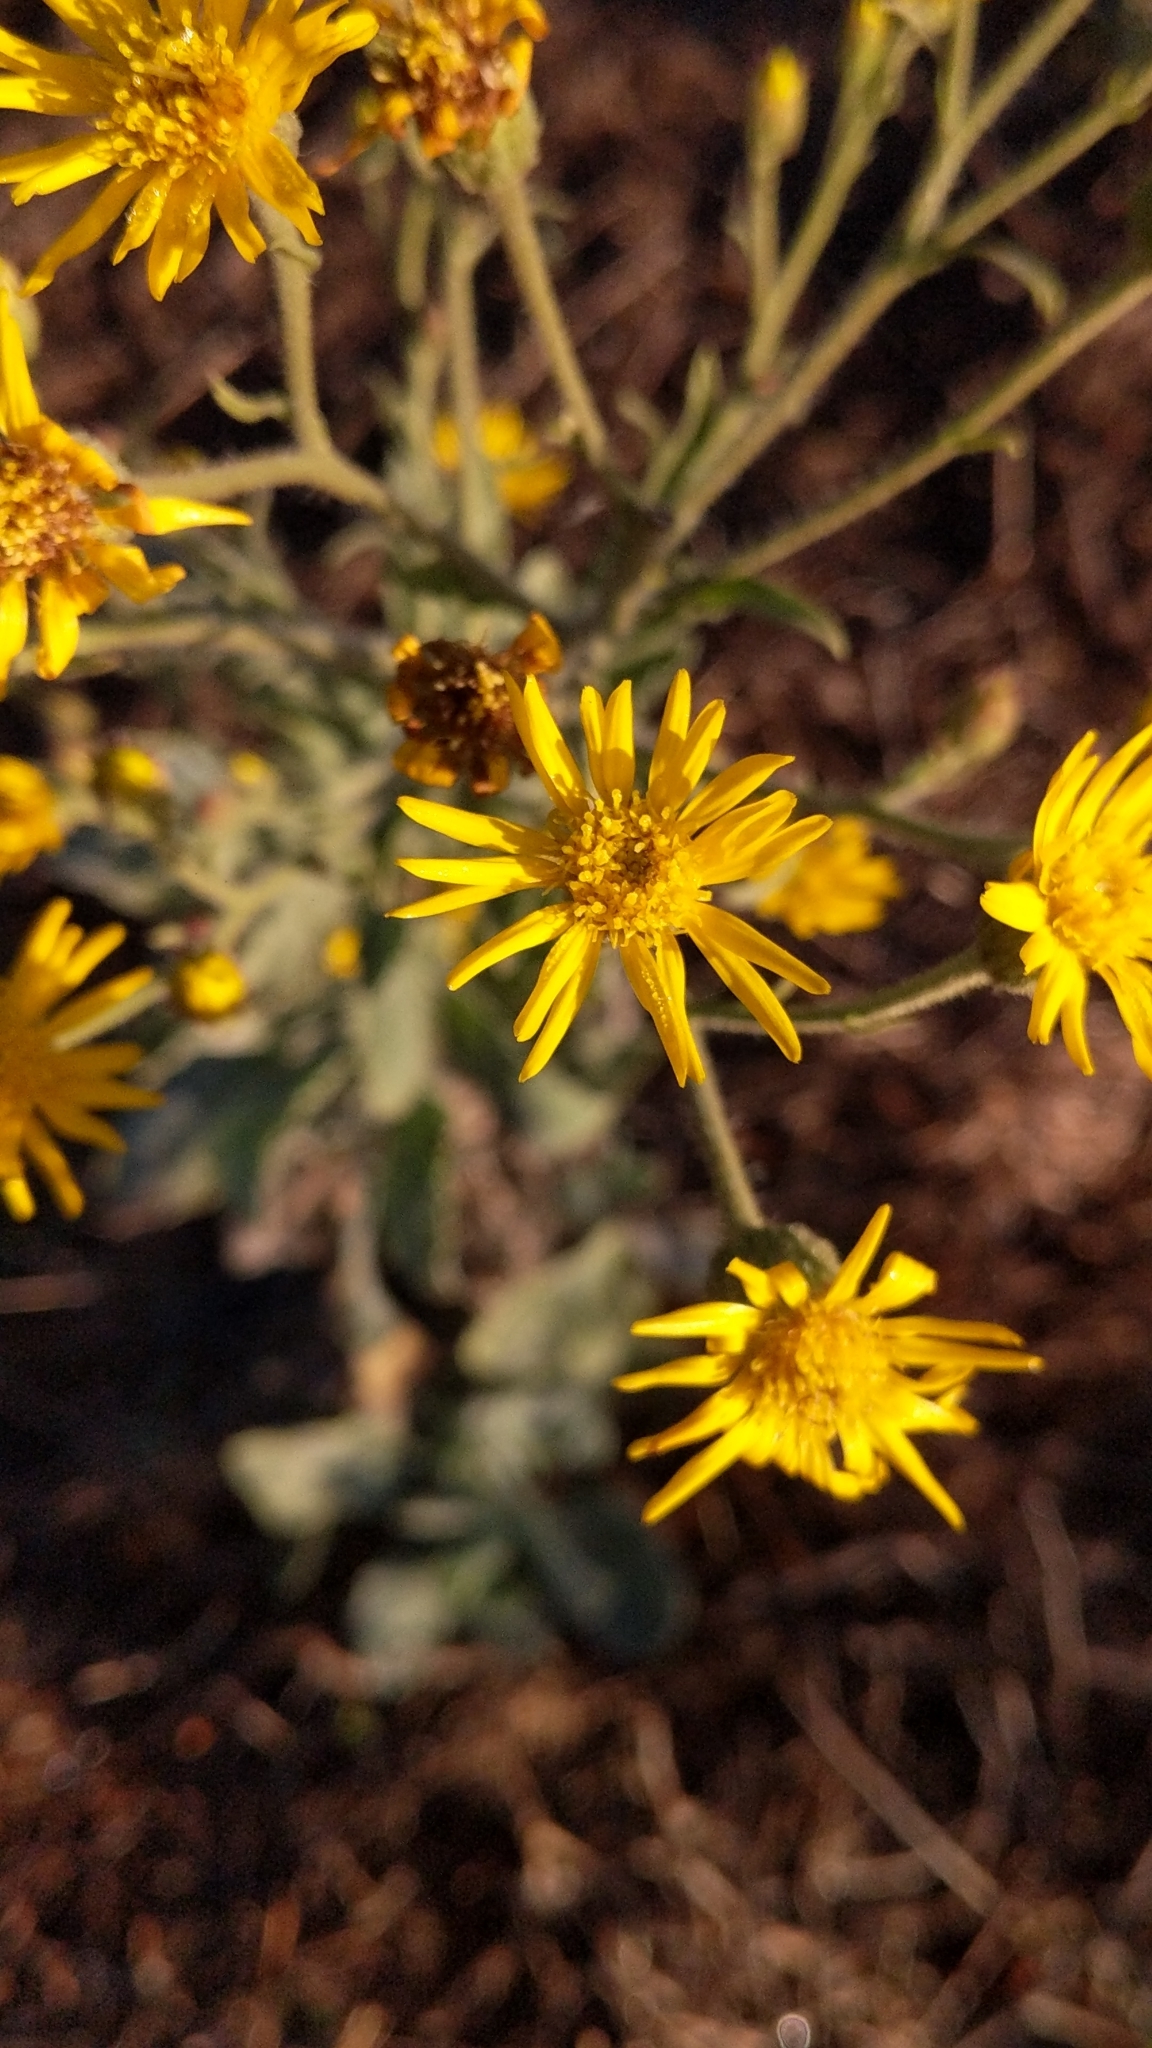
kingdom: Plantae
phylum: Tracheophyta
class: Magnoliopsida
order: Asterales
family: Asteraceae
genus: Heterotheca
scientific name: Heterotheca grandiflora
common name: Telegraphweed
